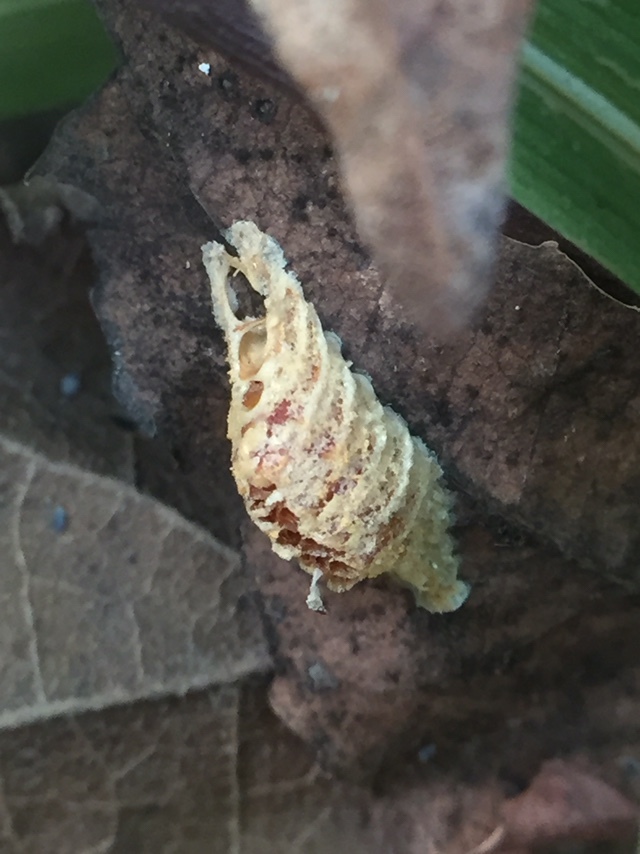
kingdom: Animalia
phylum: Arthropoda
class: Insecta
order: Mantodea
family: Hymenopodidae
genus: Odontomantis
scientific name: Odontomantis planiceps
